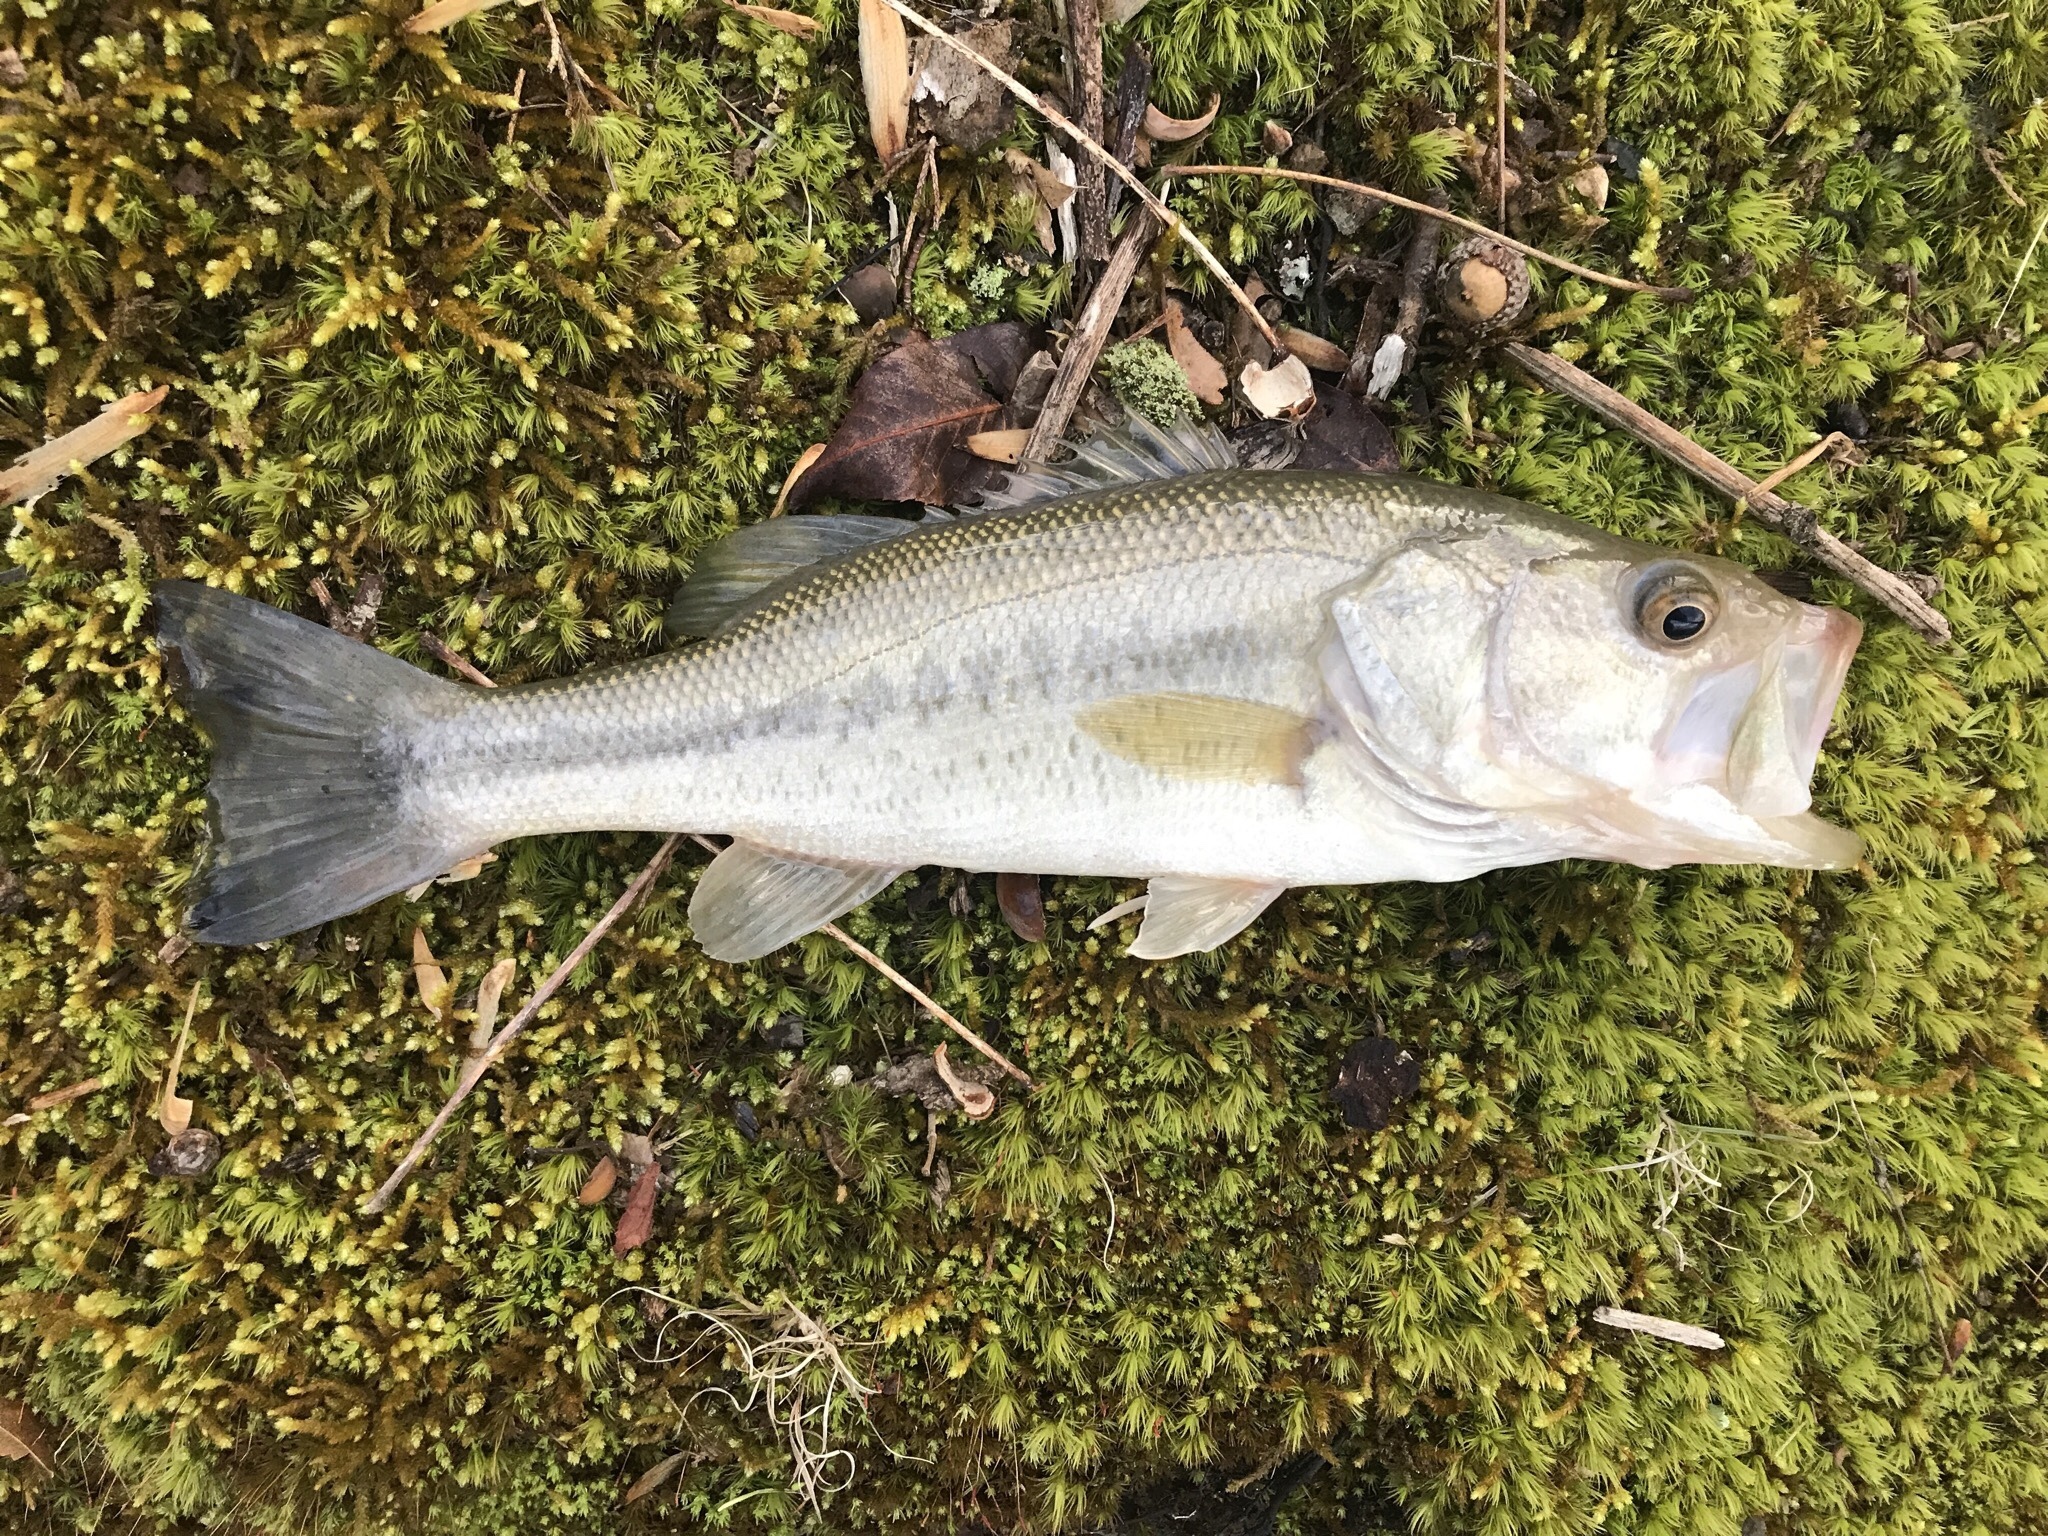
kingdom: Animalia
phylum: Chordata
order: Perciformes
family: Centrarchidae
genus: Micropterus
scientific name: Micropterus
